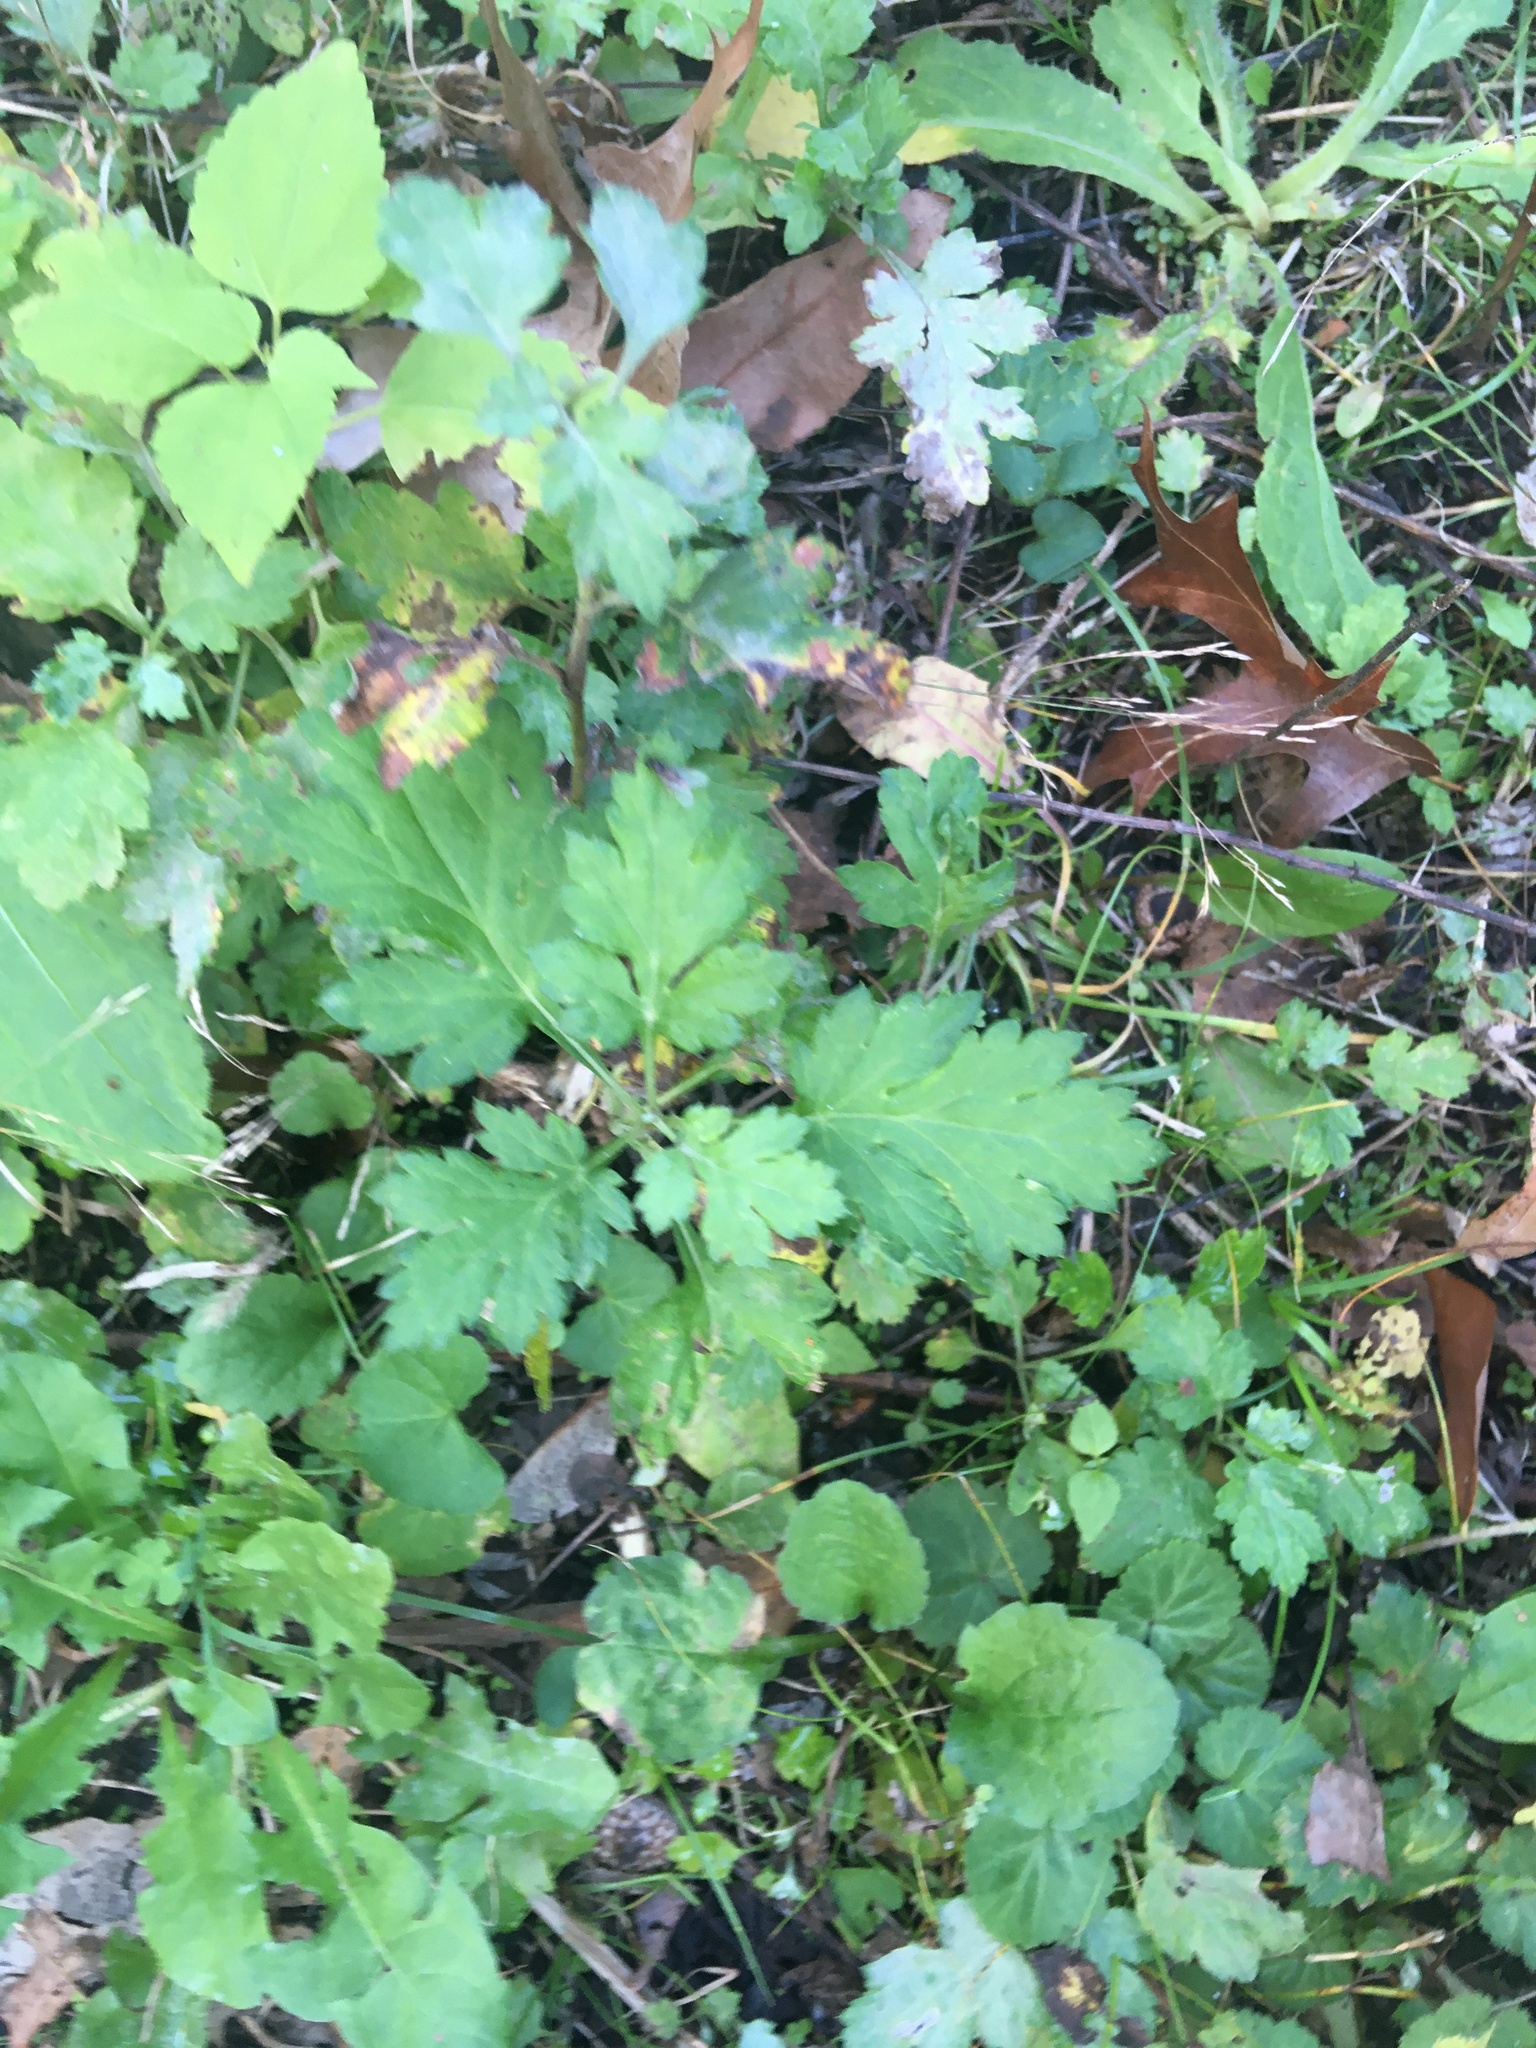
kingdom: Plantae
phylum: Tracheophyta
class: Magnoliopsida
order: Asterales
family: Asteraceae
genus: Artemisia
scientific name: Artemisia vulgaris
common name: Mugwort
